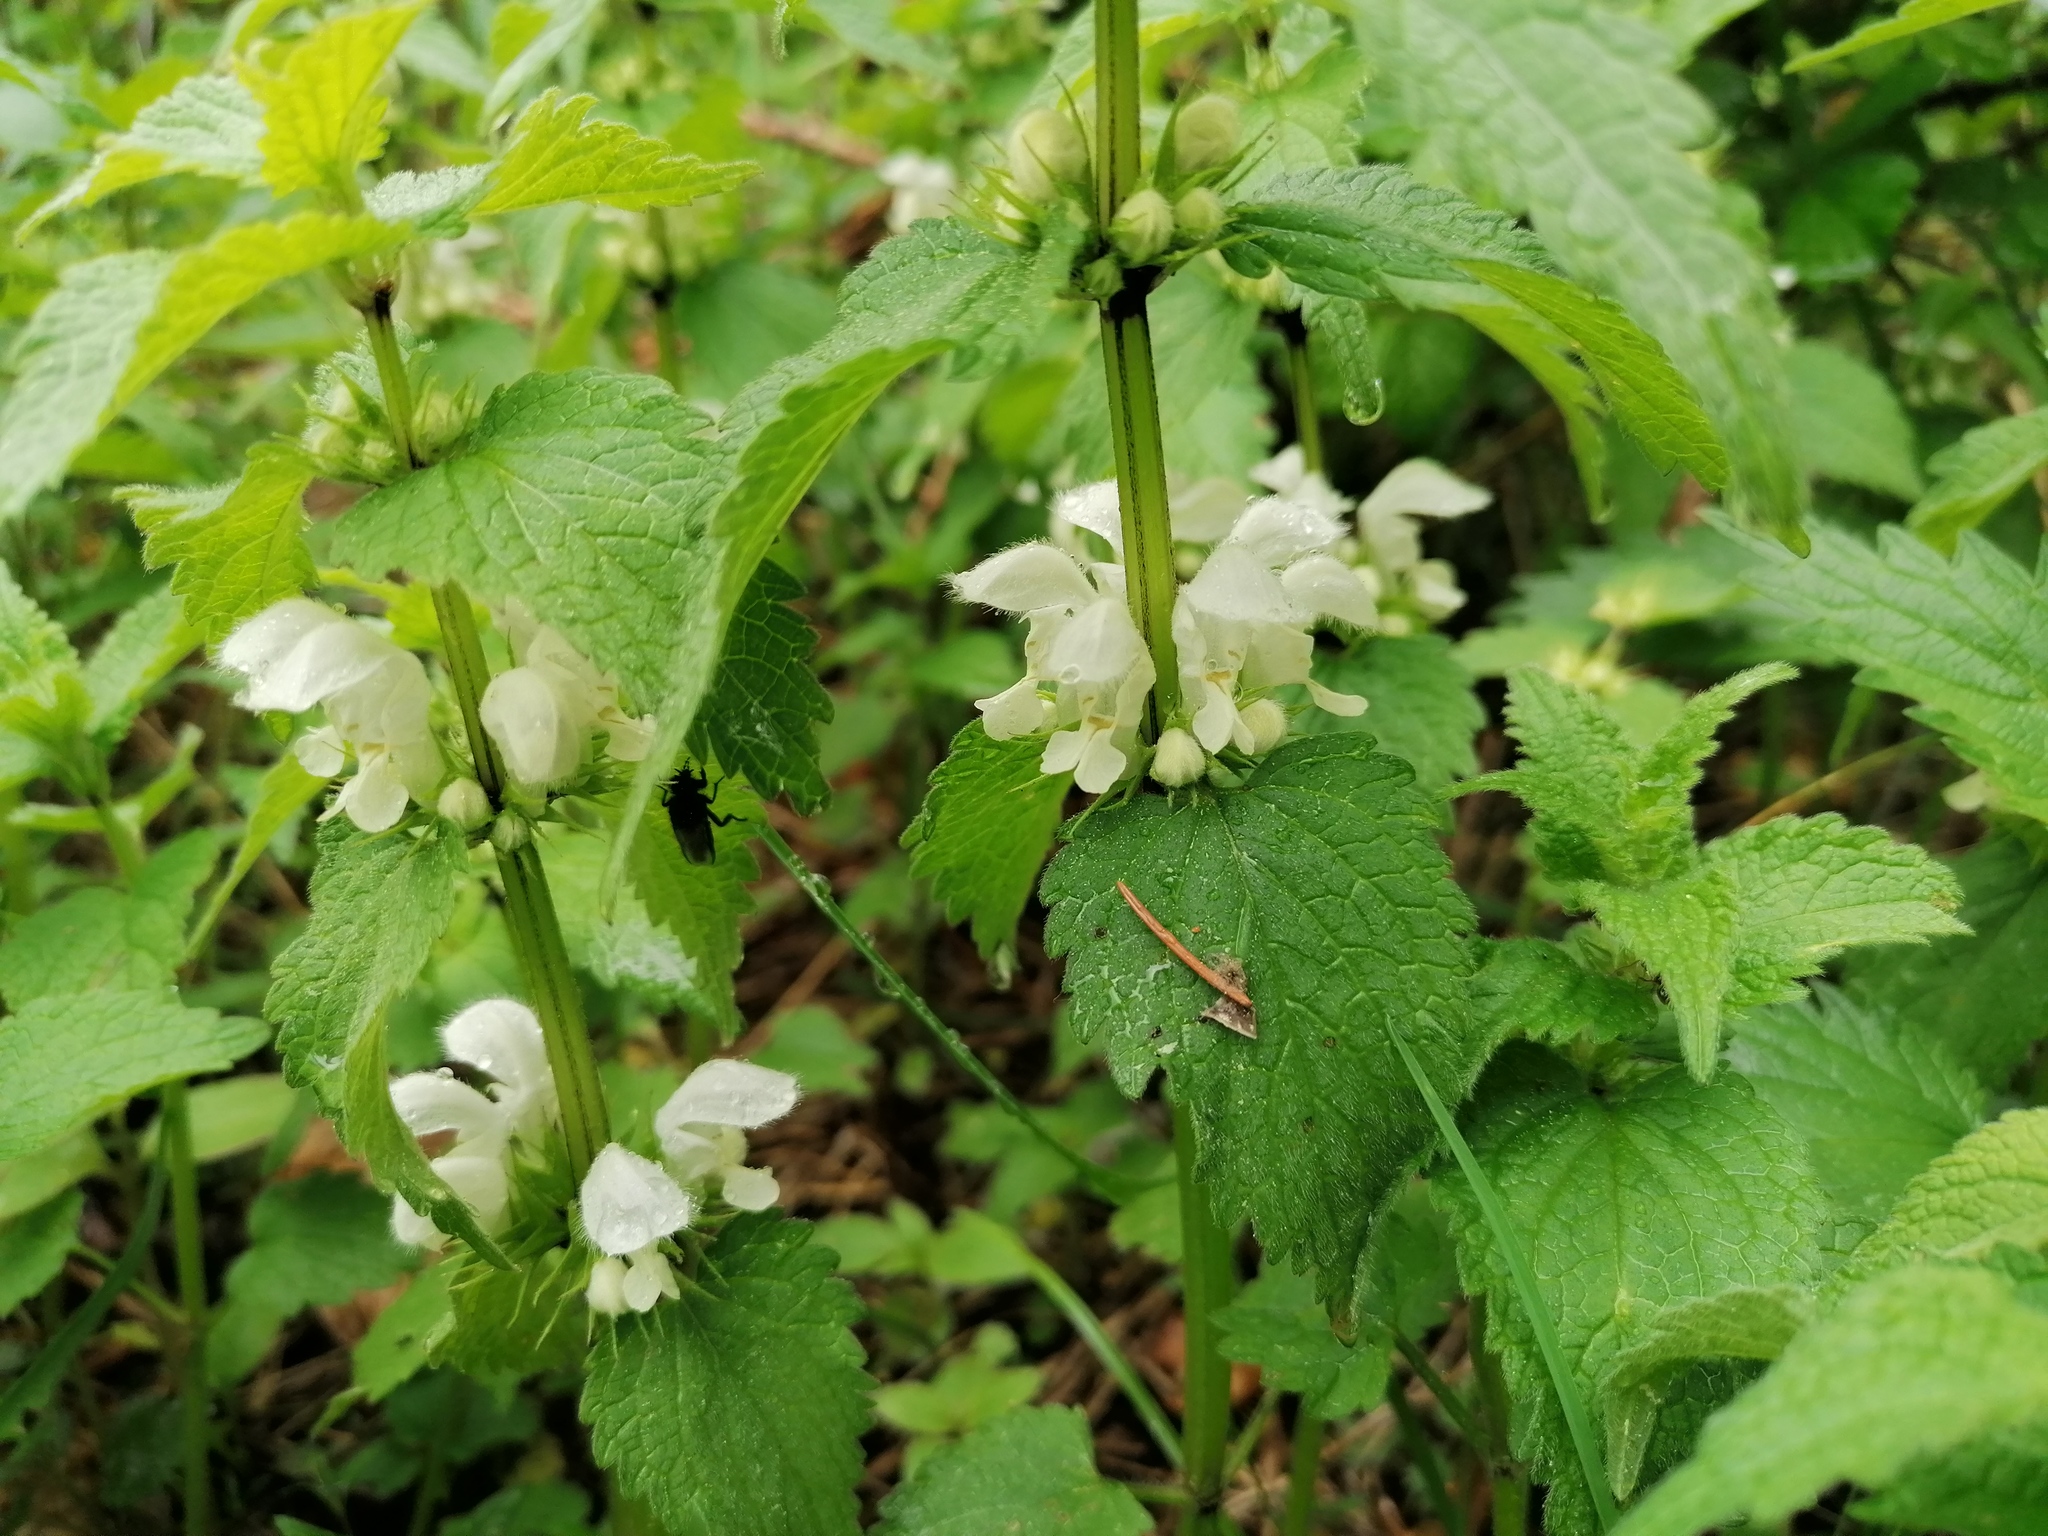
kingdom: Plantae
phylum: Tracheophyta
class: Magnoliopsida
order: Lamiales
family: Lamiaceae
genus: Lamium
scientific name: Lamium album
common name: White dead-nettle
